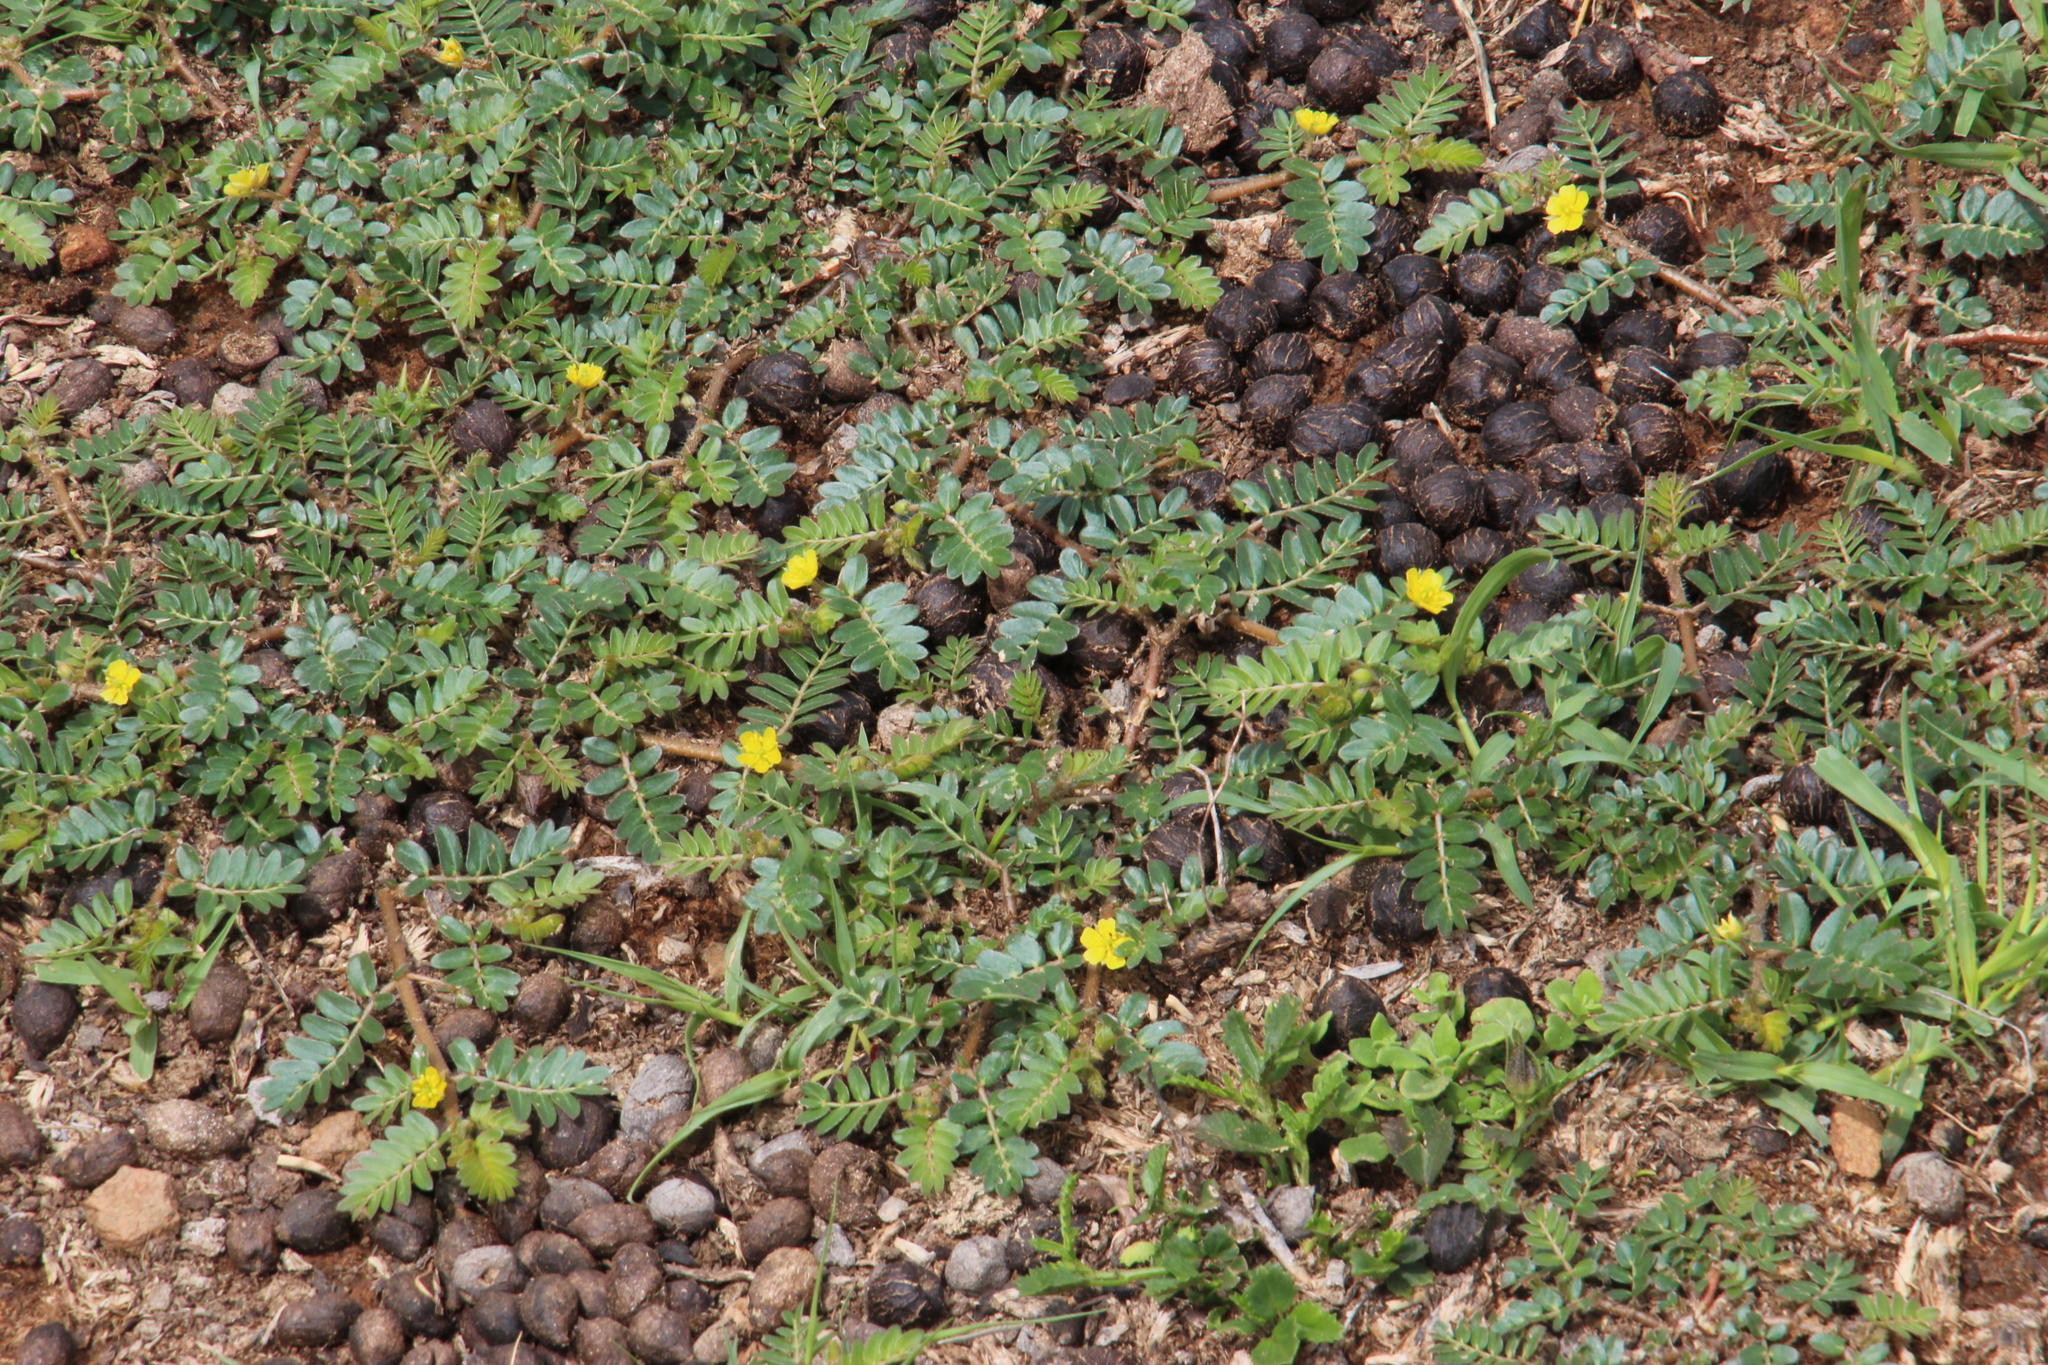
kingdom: Plantae
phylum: Tracheophyta
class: Magnoliopsida
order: Zygophyllales
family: Zygophyllaceae
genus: Tribulus
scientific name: Tribulus terrestris
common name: Puncturevine
